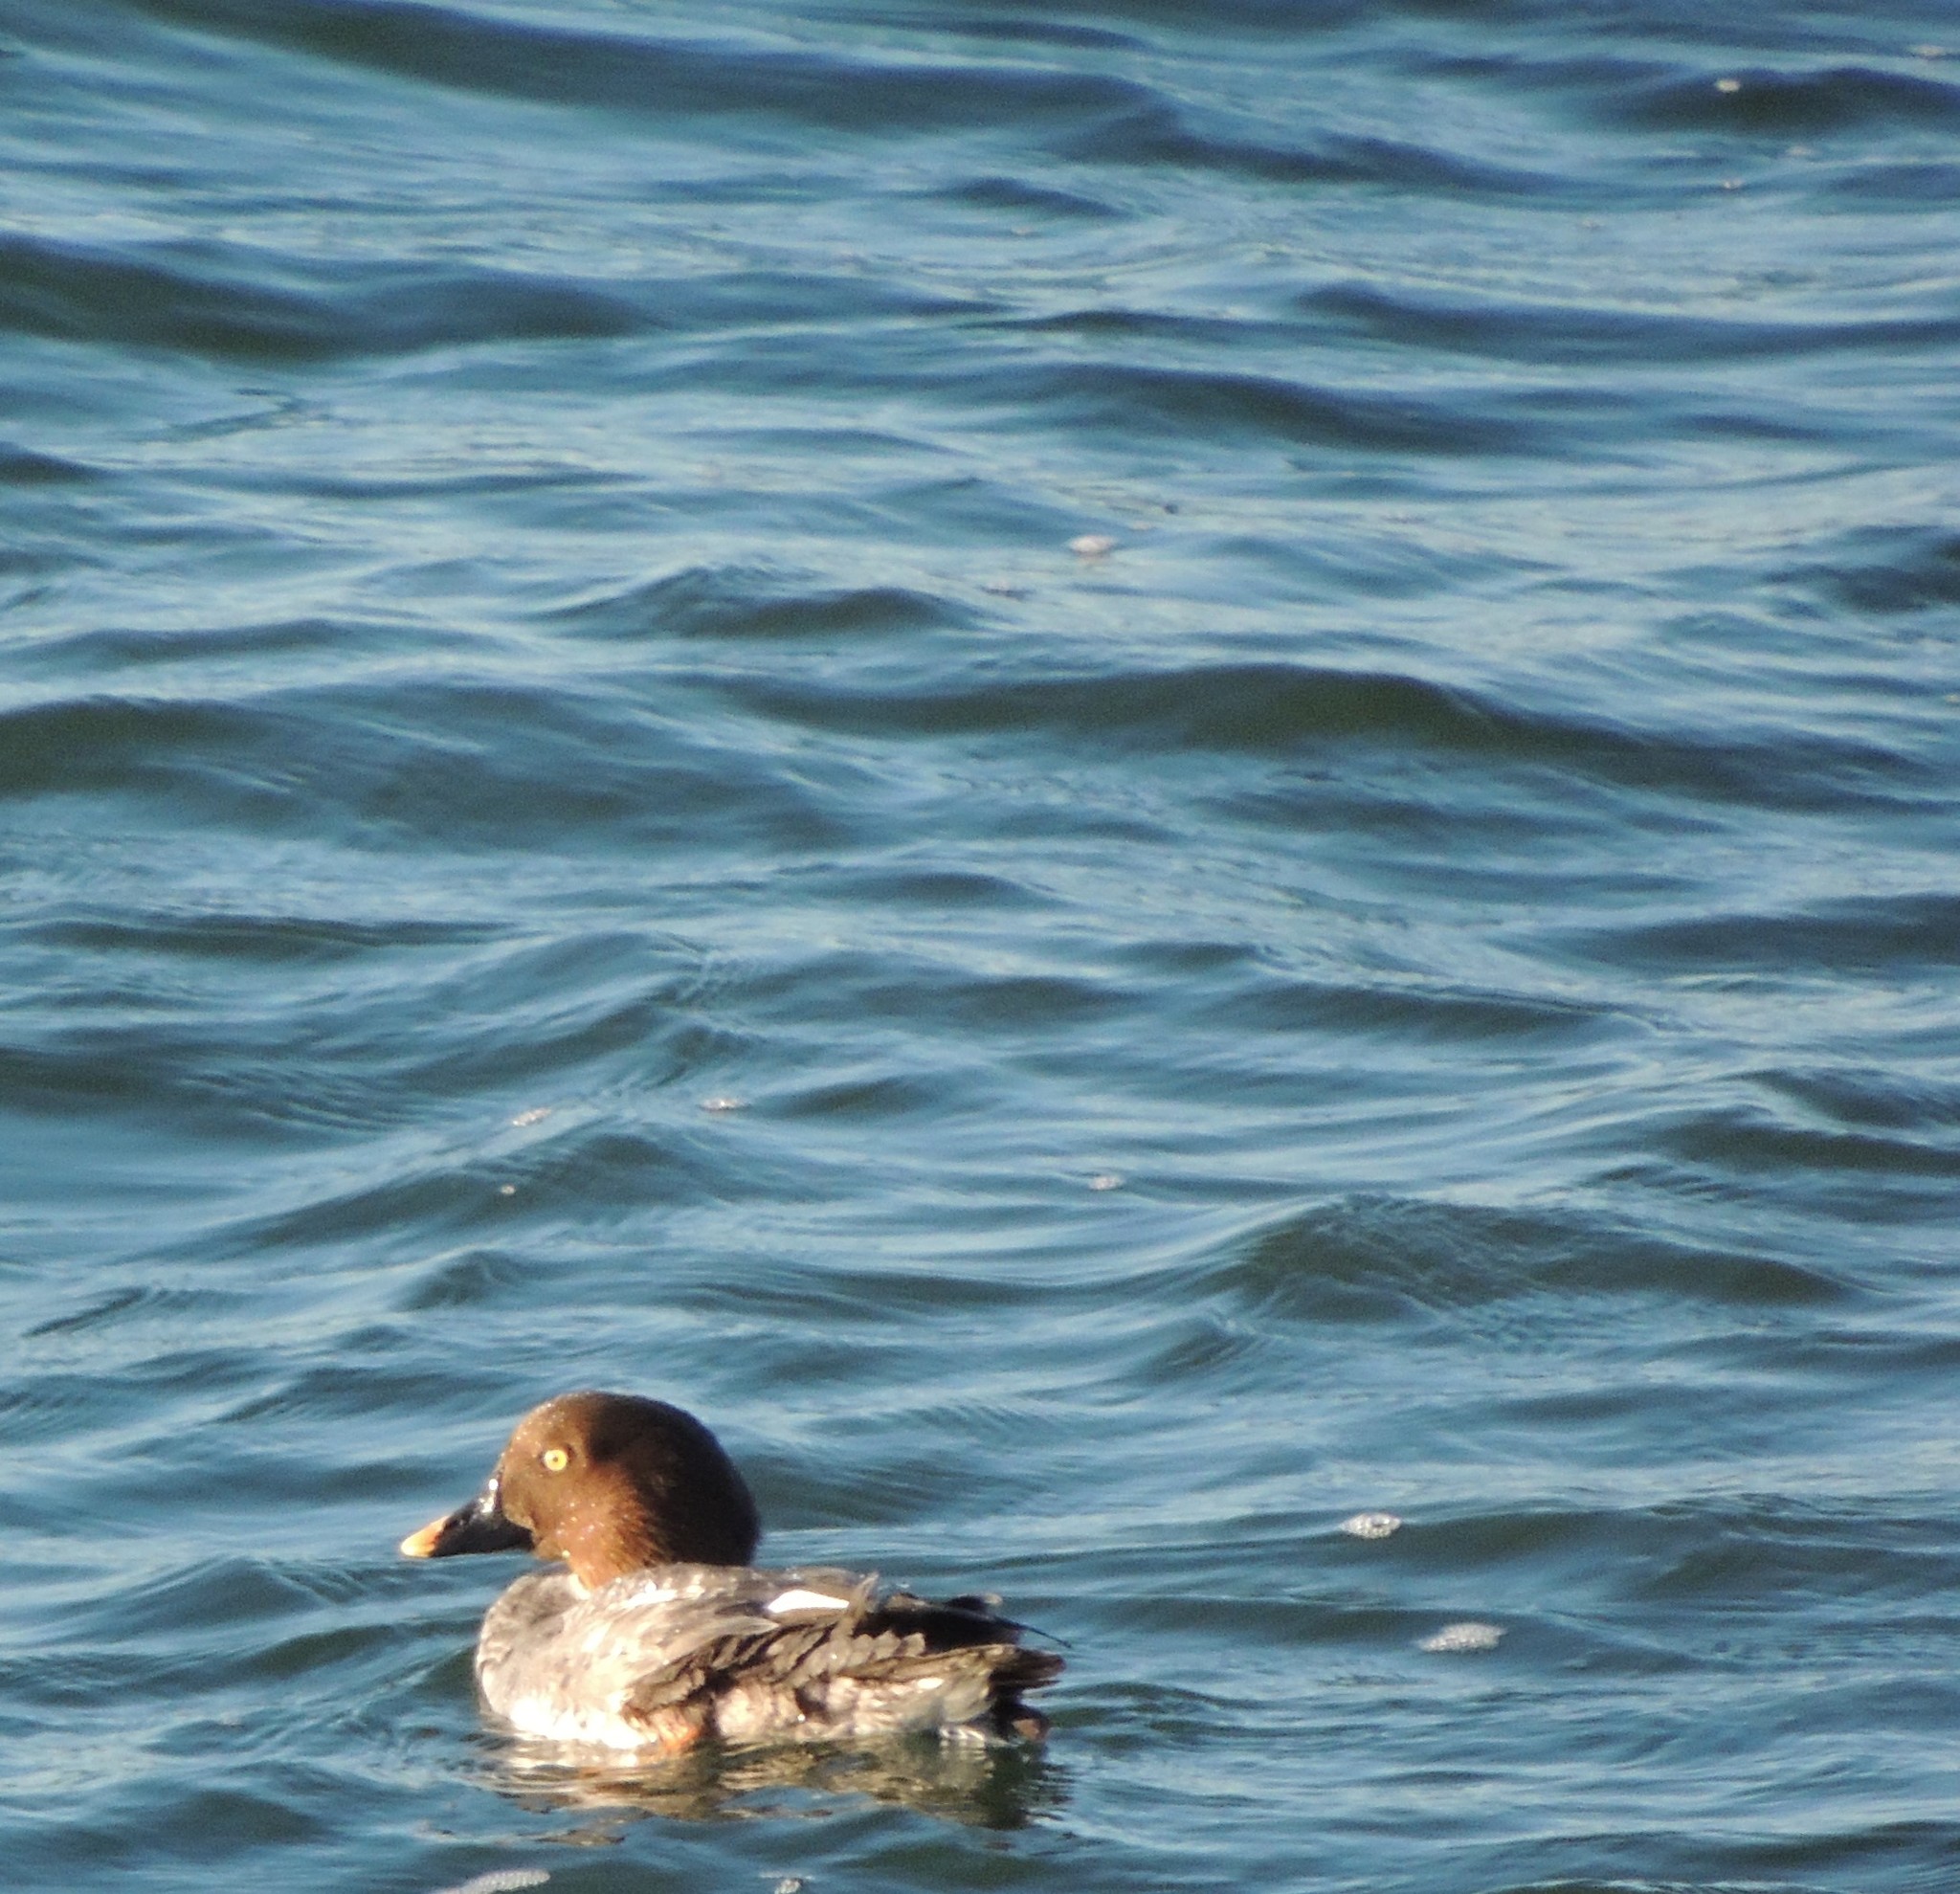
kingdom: Animalia
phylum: Chordata
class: Aves
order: Anseriformes
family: Anatidae
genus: Bucephala
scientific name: Bucephala clangula
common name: Common goldeneye
